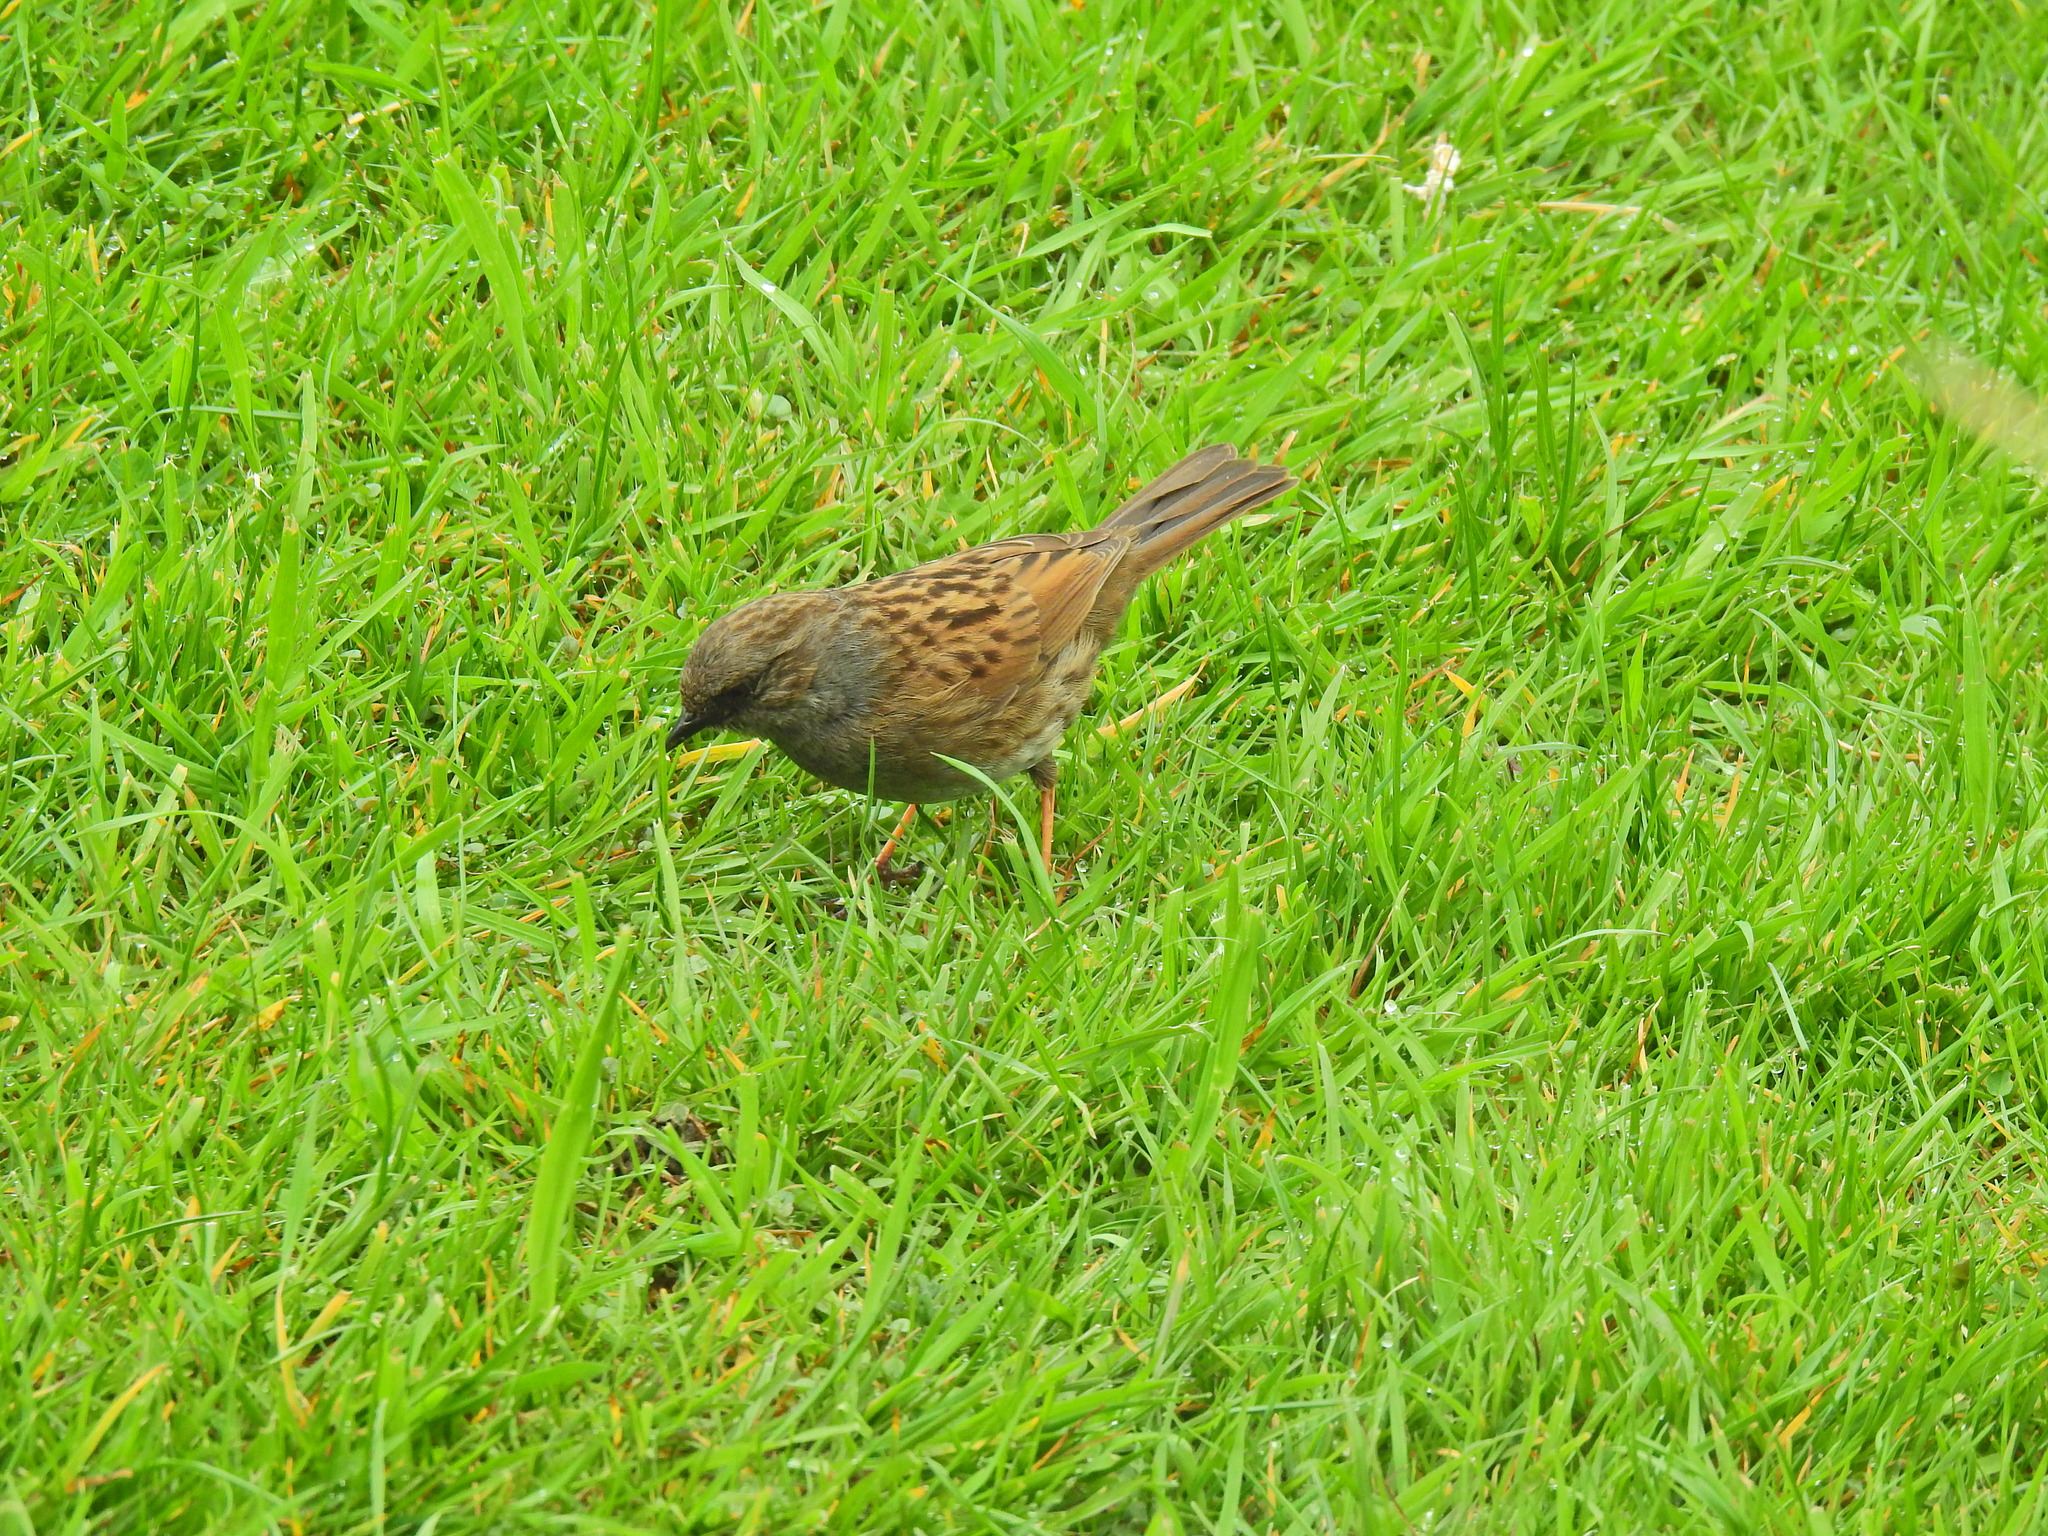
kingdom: Animalia
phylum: Chordata
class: Aves
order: Passeriformes
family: Prunellidae
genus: Prunella
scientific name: Prunella modularis
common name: Dunnock
